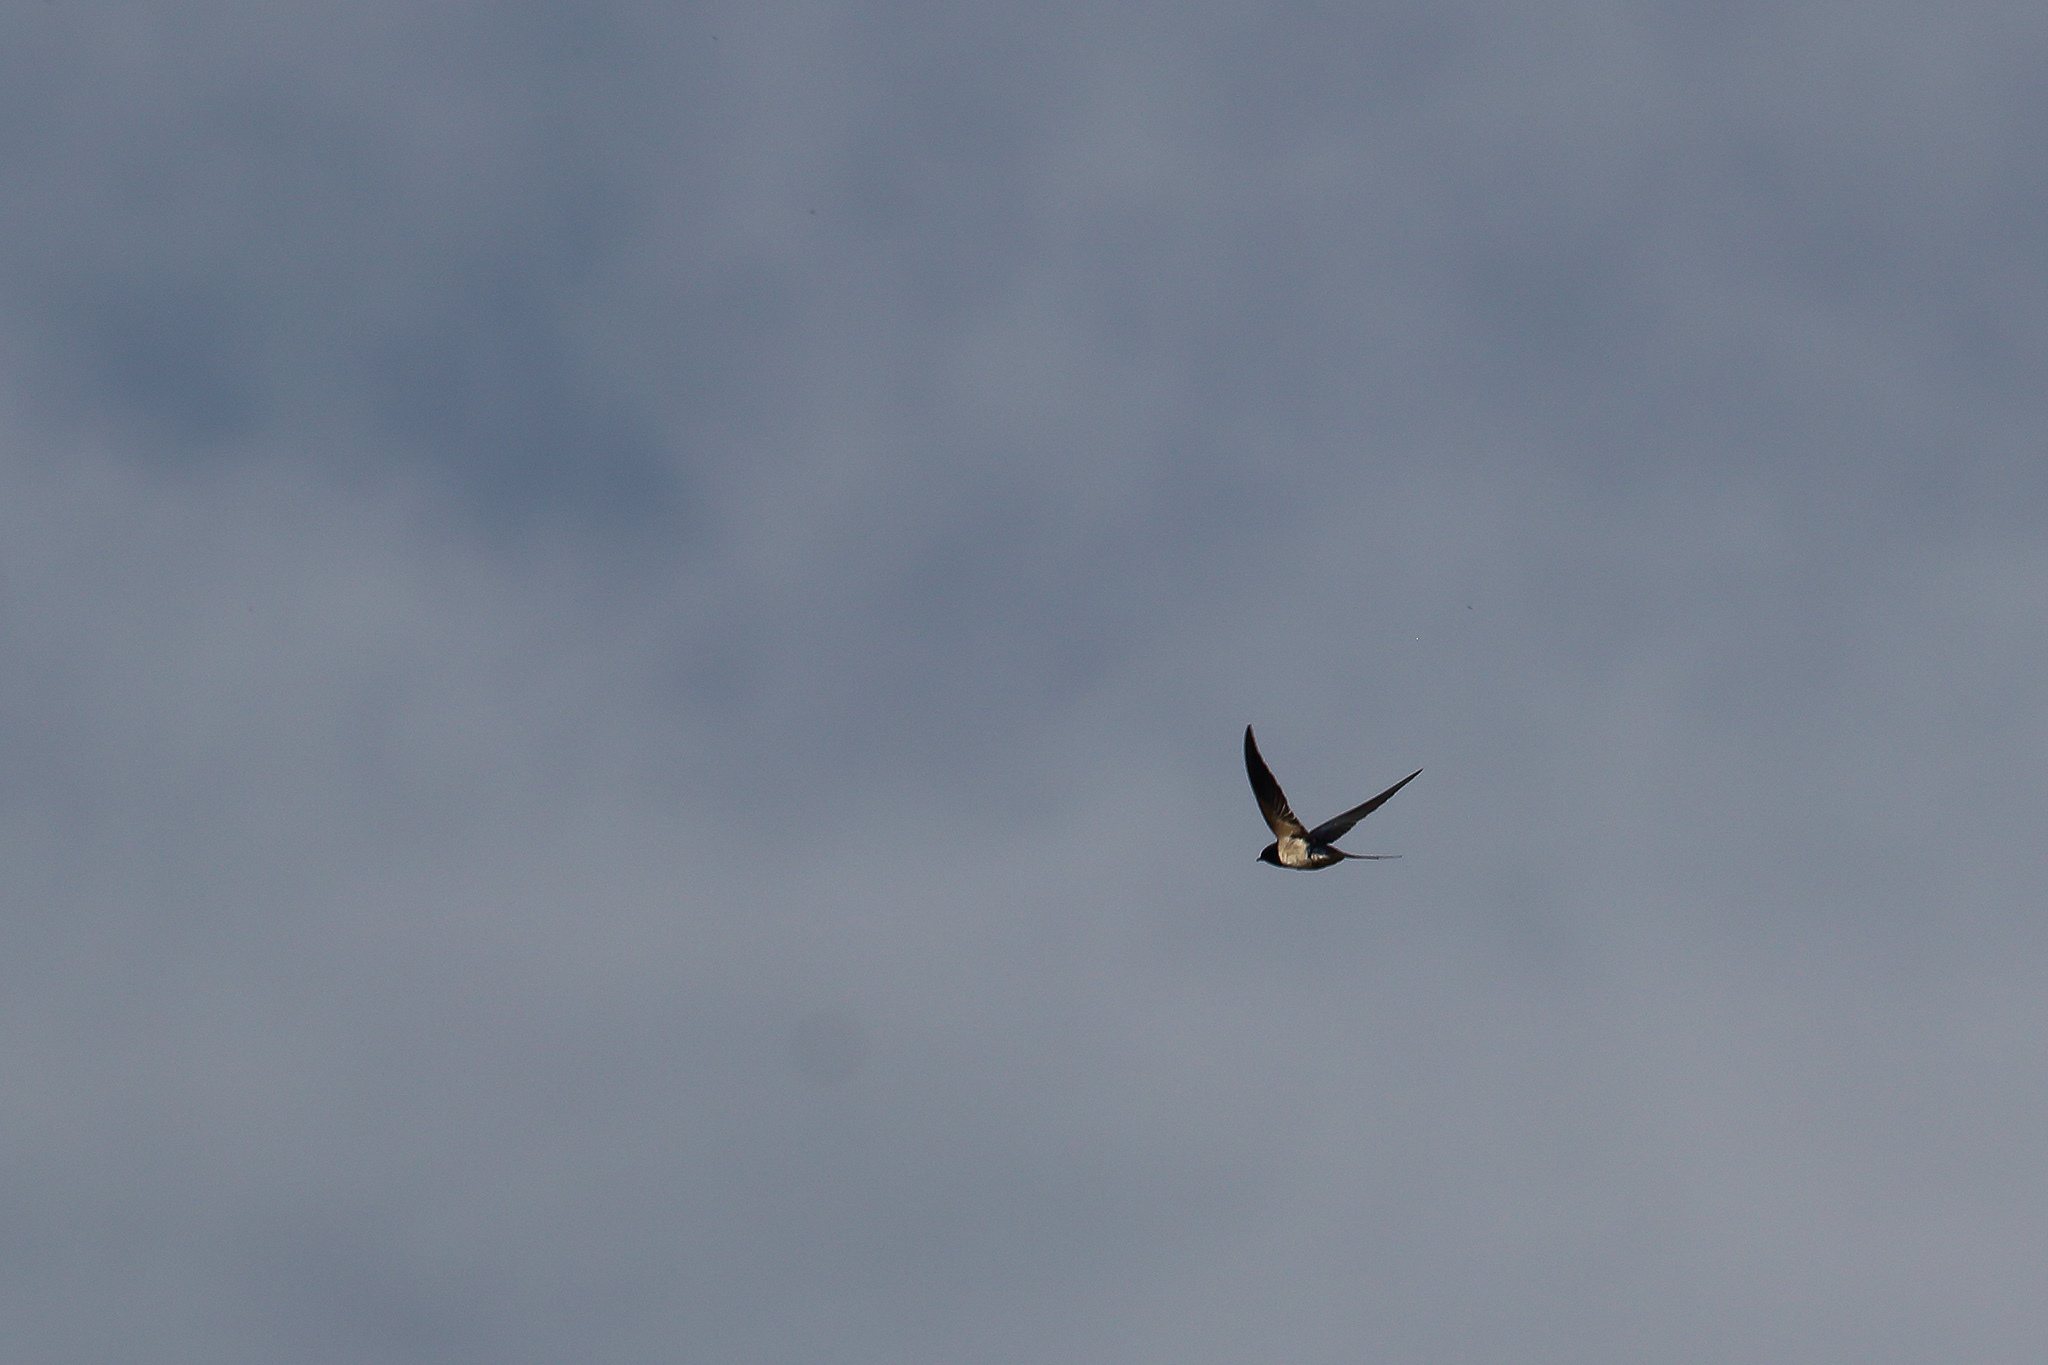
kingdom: Animalia
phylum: Chordata
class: Aves
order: Passeriformes
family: Hirundinidae
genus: Hirundo
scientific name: Hirundo rustica
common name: Barn swallow
